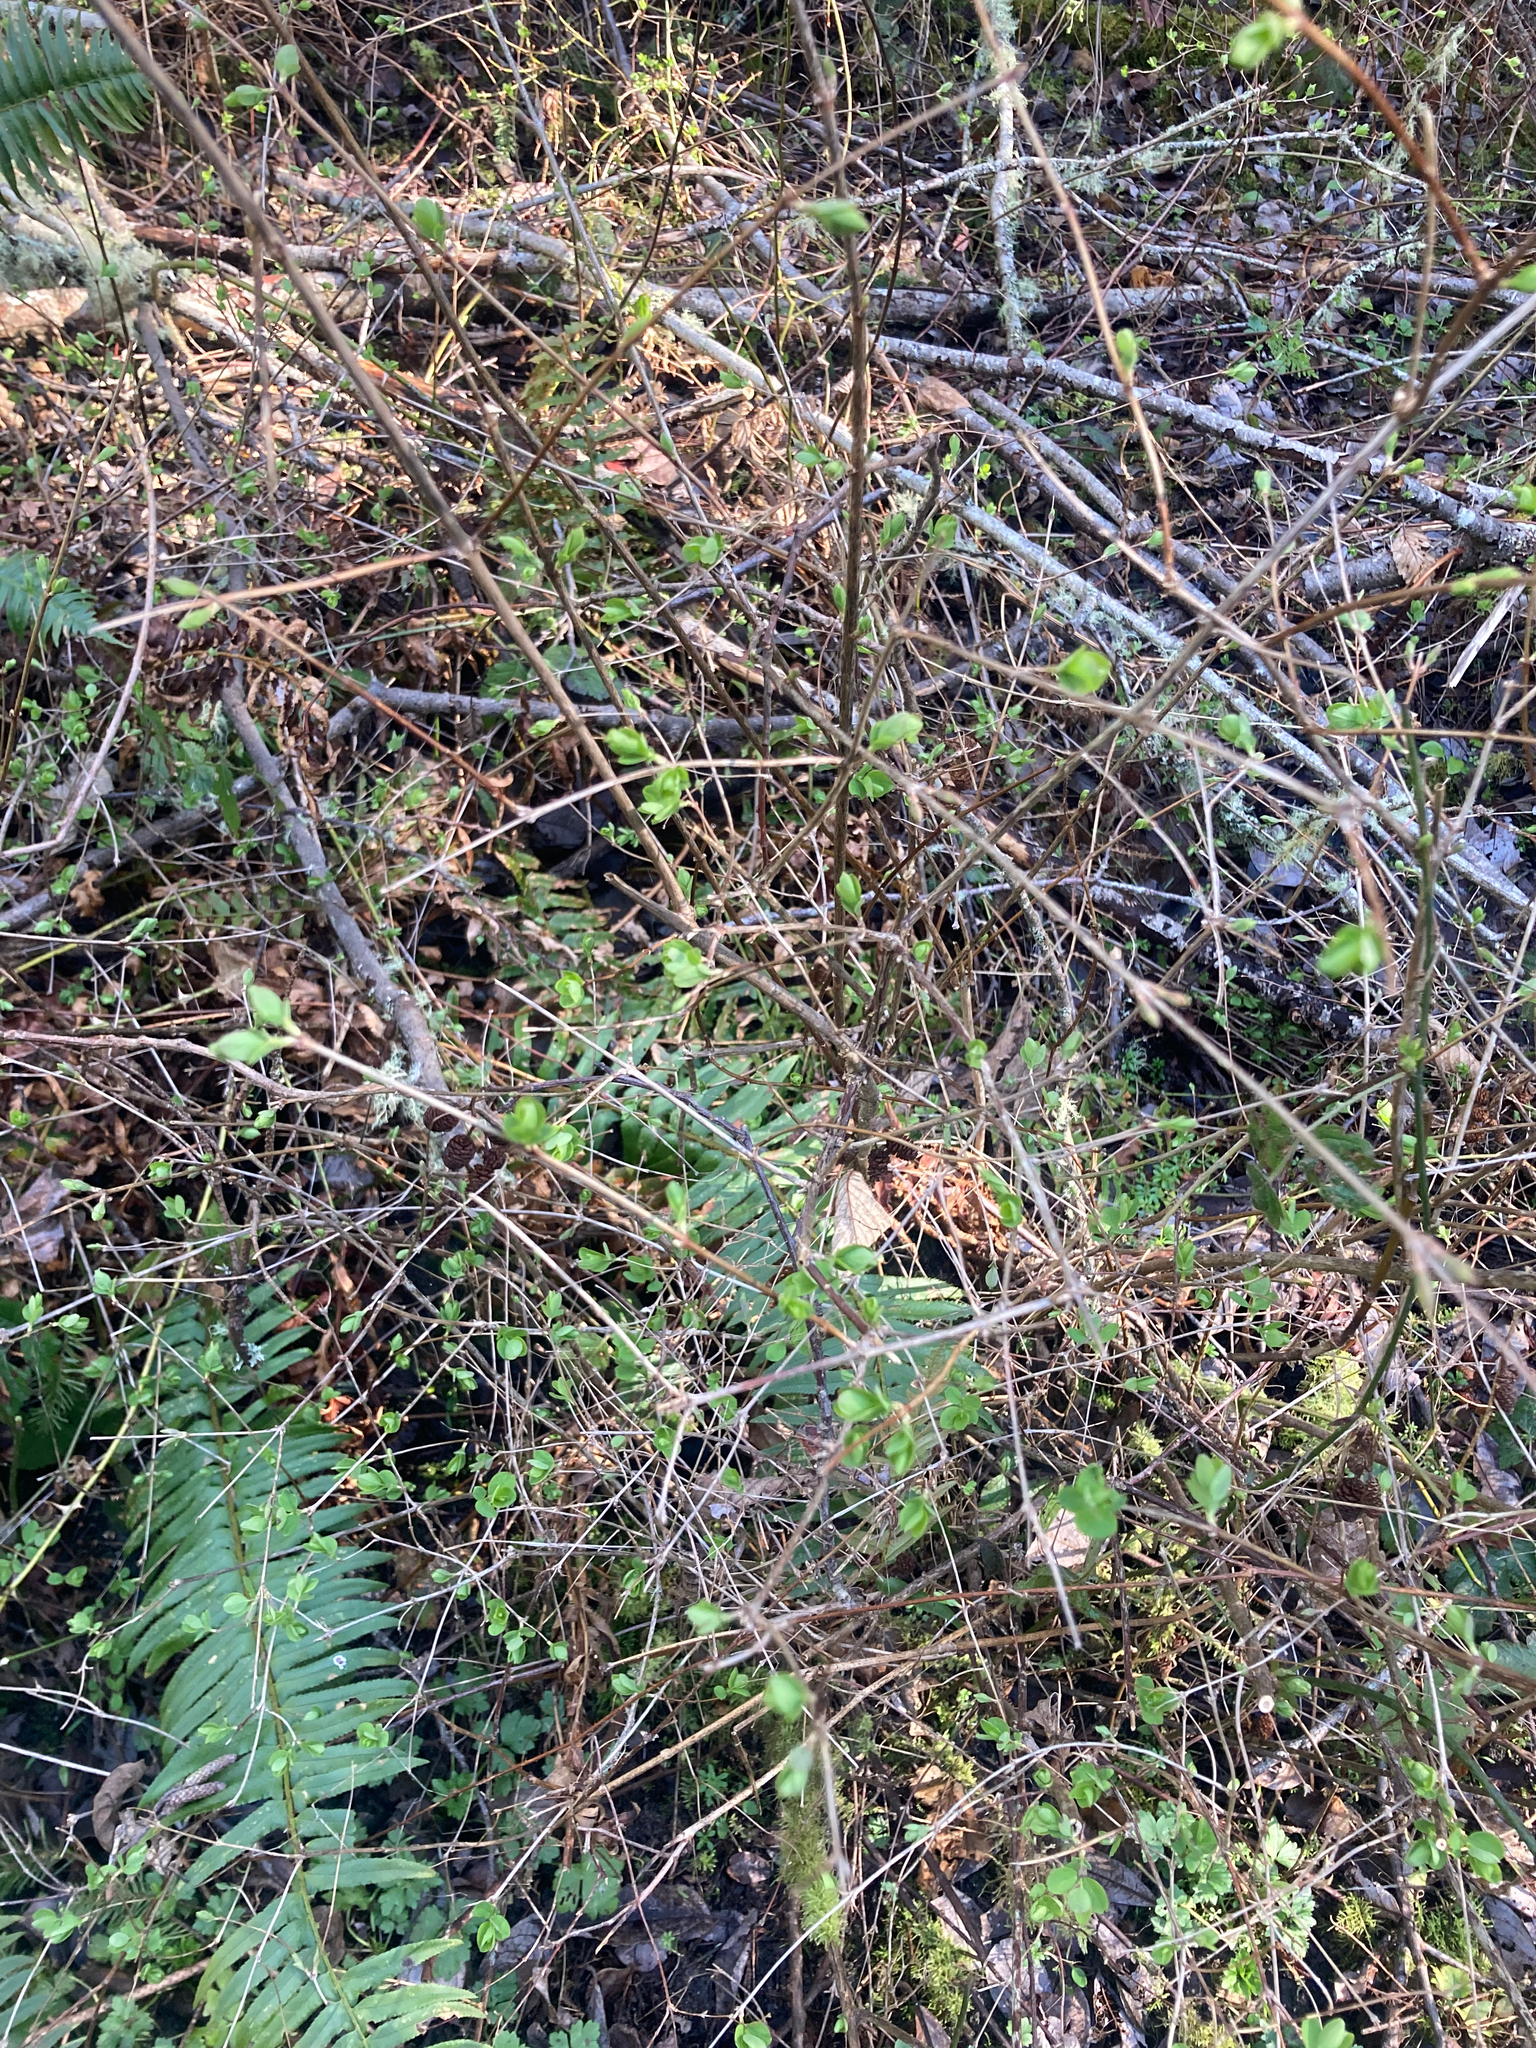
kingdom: Plantae
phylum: Tracheophyta
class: Magnoliopsida
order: Dipsacales
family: Caprifoliaceae
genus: Symphoricarpos
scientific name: Symphoricarpos albus
